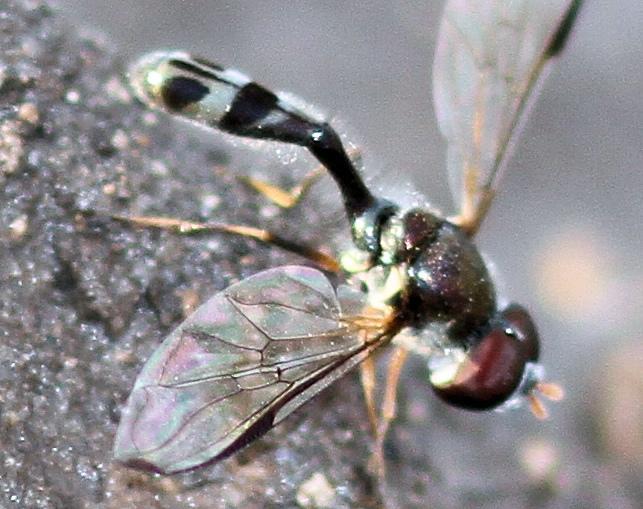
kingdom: Animalia
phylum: Arthropoda
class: Insecta
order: Diptera
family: Syrphidae
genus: Allobaccha
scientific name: Allobaccha sapphirina
